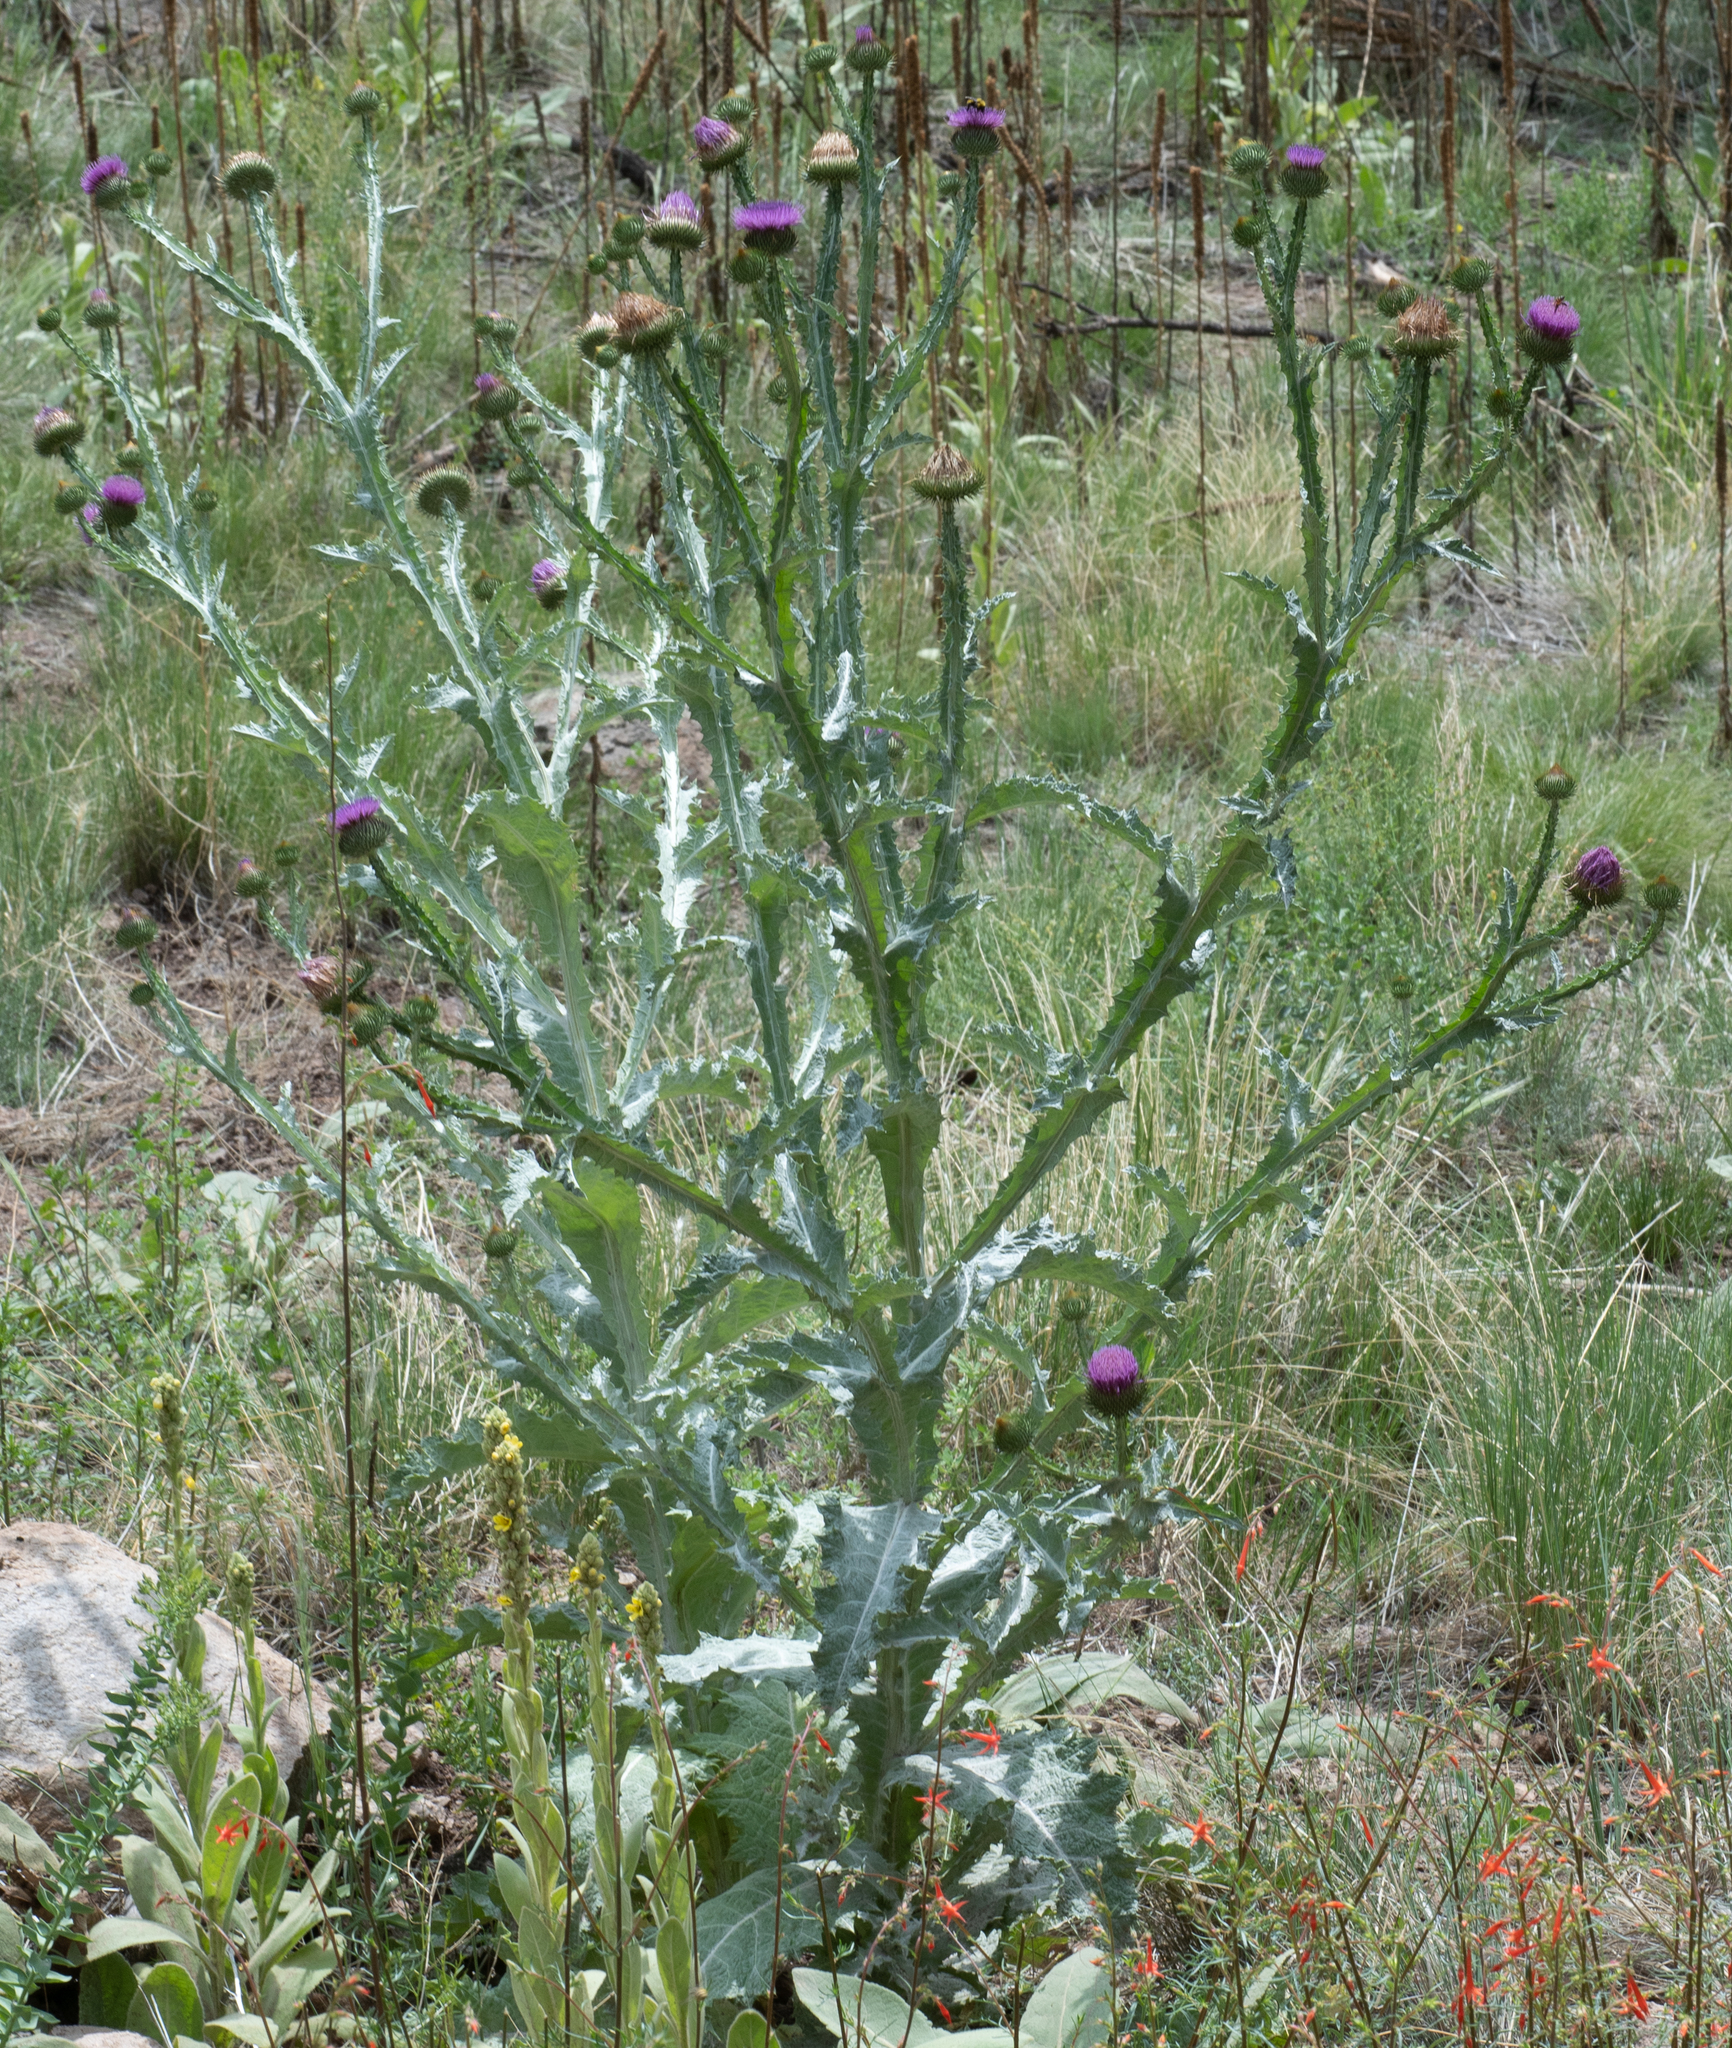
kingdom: Plantae
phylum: Tracheophyta
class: Magnoliopsida
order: Asterales
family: Asteraceae
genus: Onopordum
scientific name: Onopordum acanthium
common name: Scotch thistle
